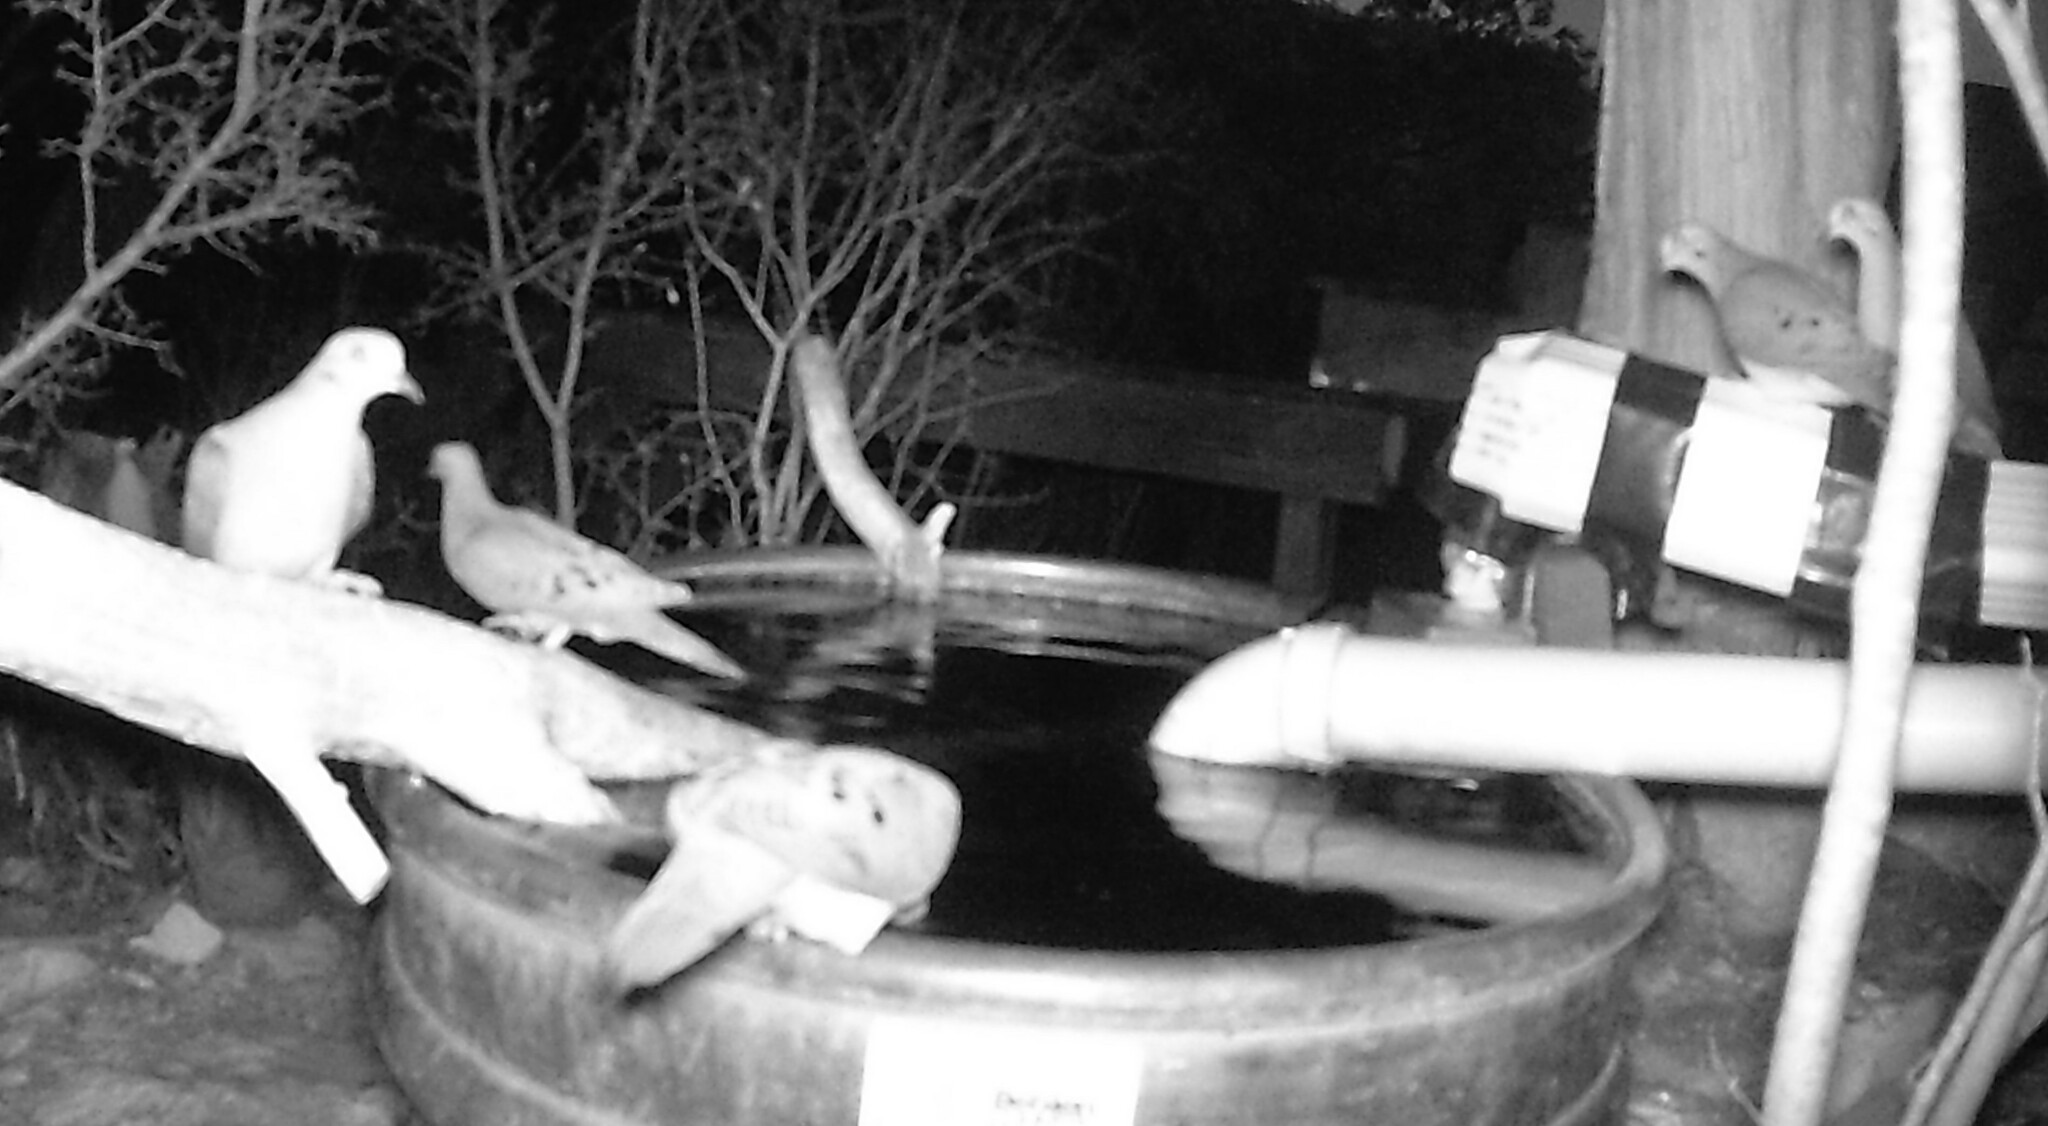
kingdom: Animalia
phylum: Chordata
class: Aves
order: Columbiformes
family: Columbidae
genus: Zenaida
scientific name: Zenaida macroura
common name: Mourning dove
